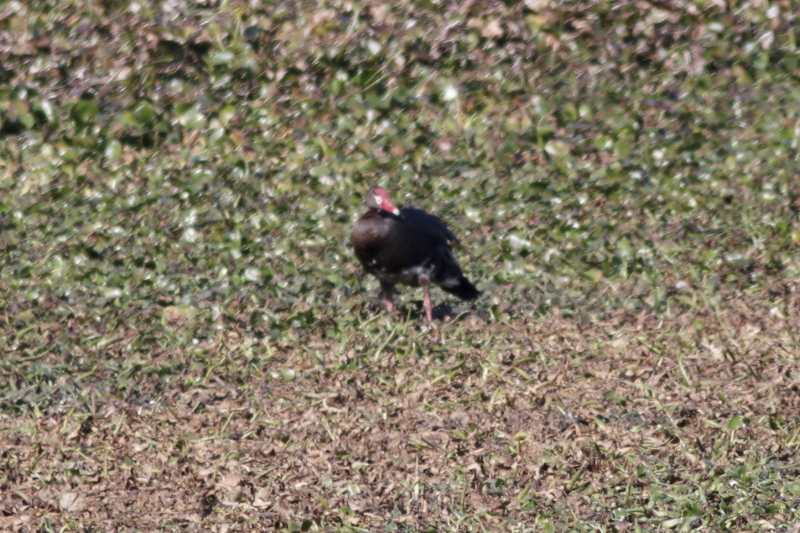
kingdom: Animalia
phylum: Chordata
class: Aves
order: Anseriformes
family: Anatidae
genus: Plectropterus
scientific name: Plectropterus gambensis
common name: Spur-winged goose
